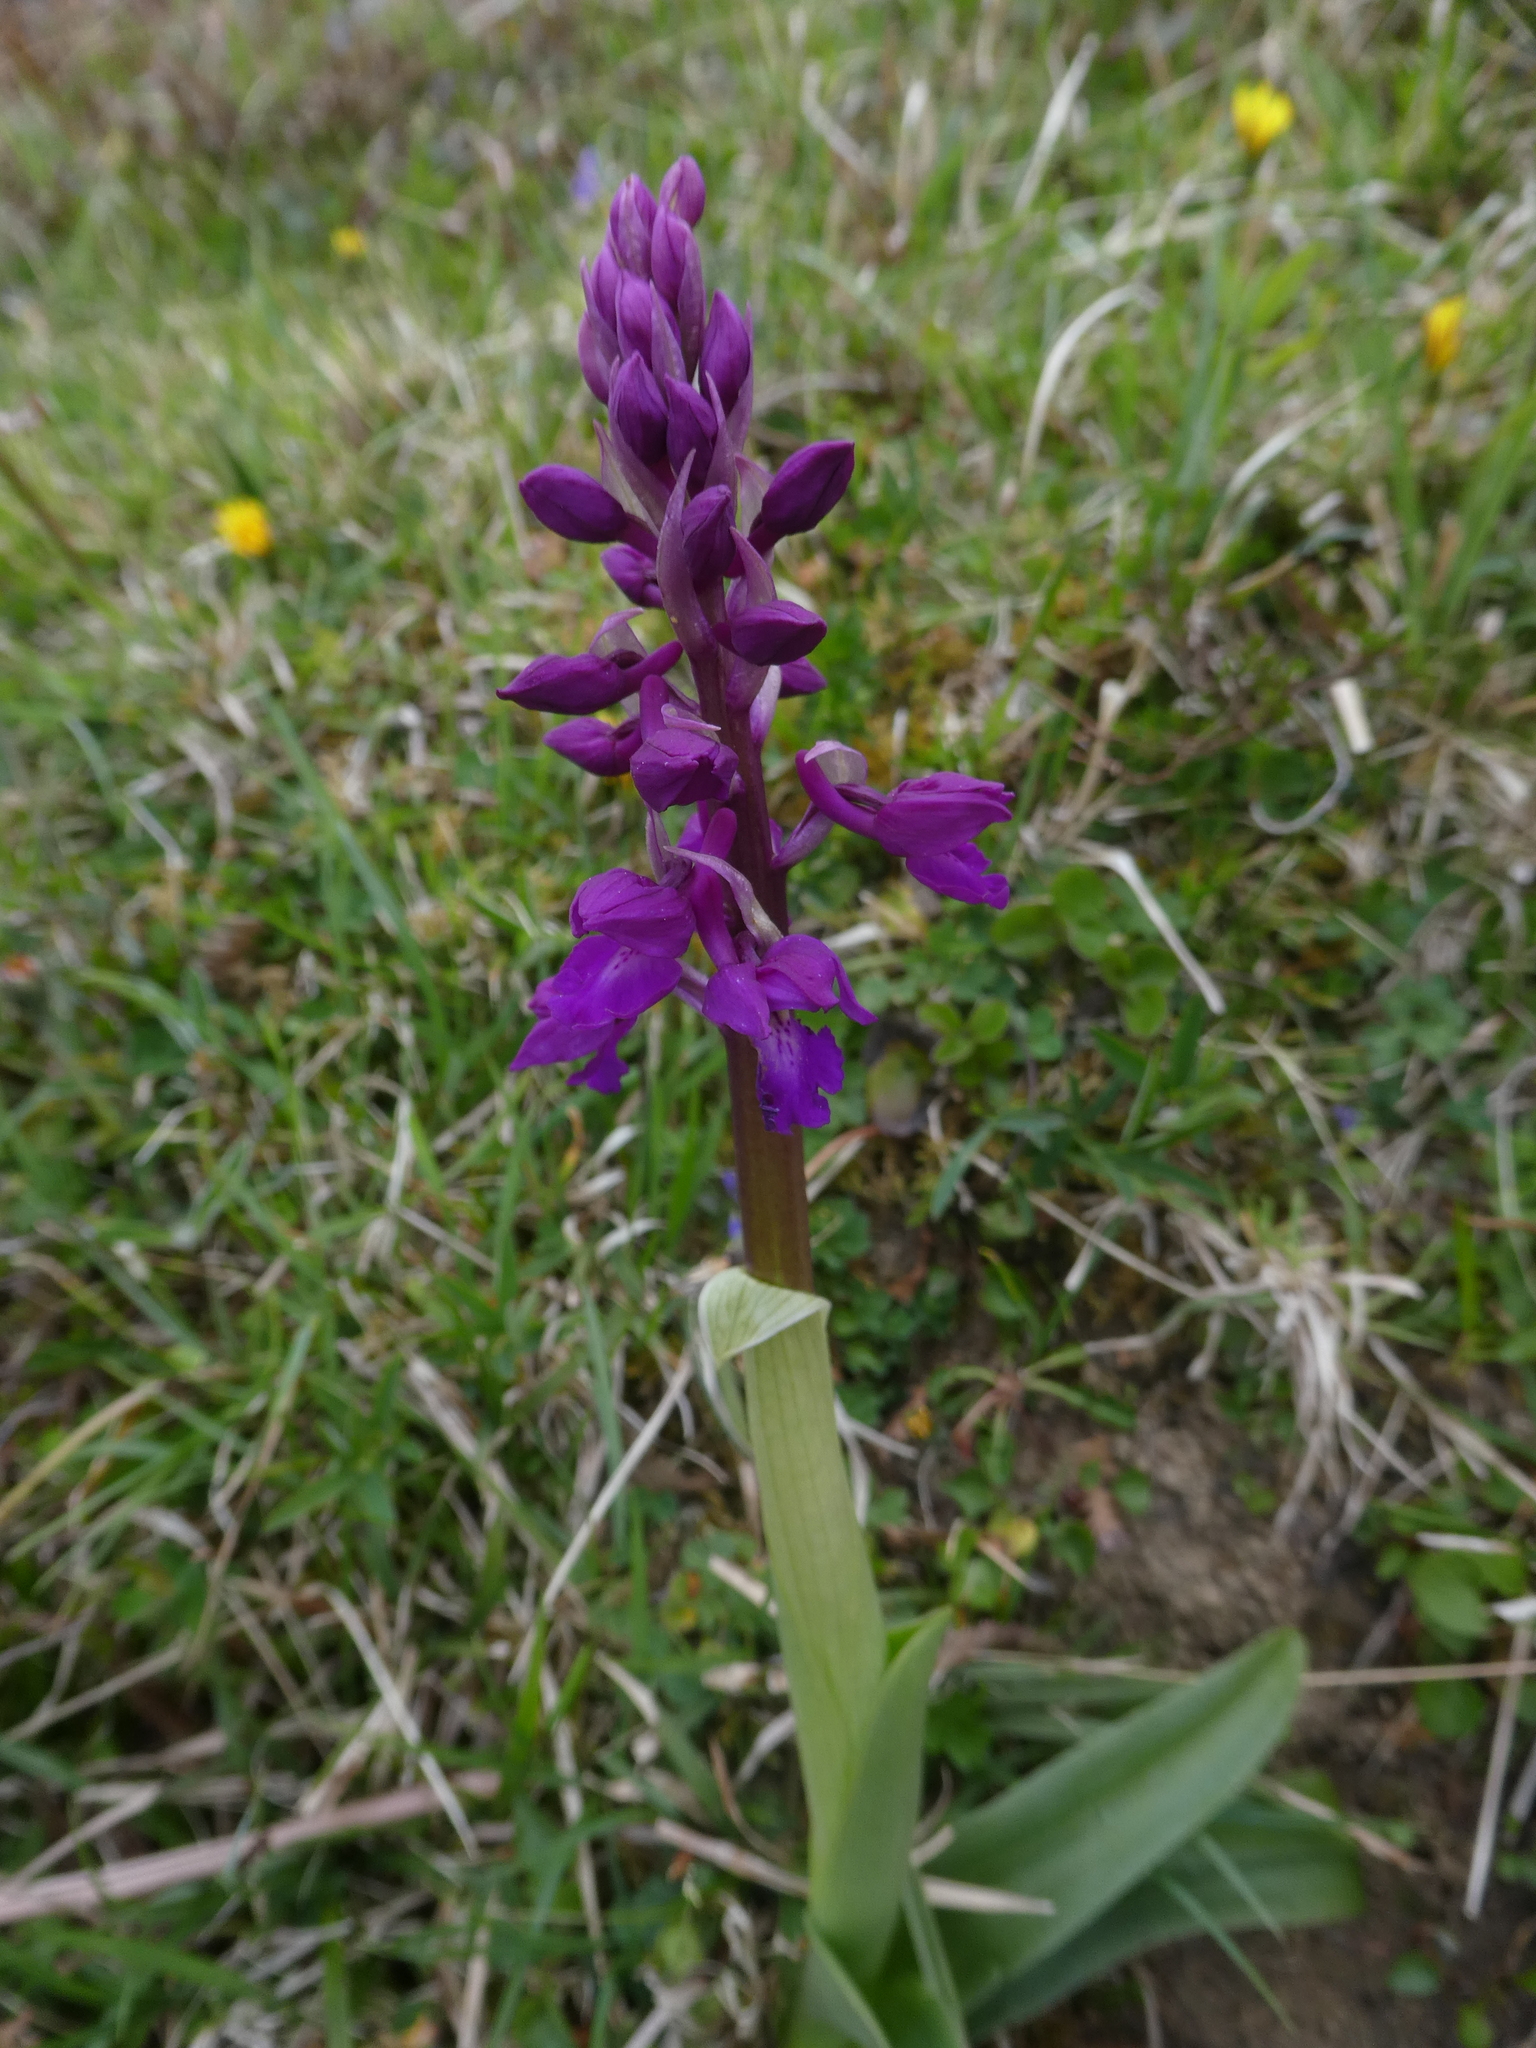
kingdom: Plantae
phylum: Tracheophyta
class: Liliopsida
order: Asparagales
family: Orchidaceae
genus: Orchis
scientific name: Orchis mascula
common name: Early-purple orchid
